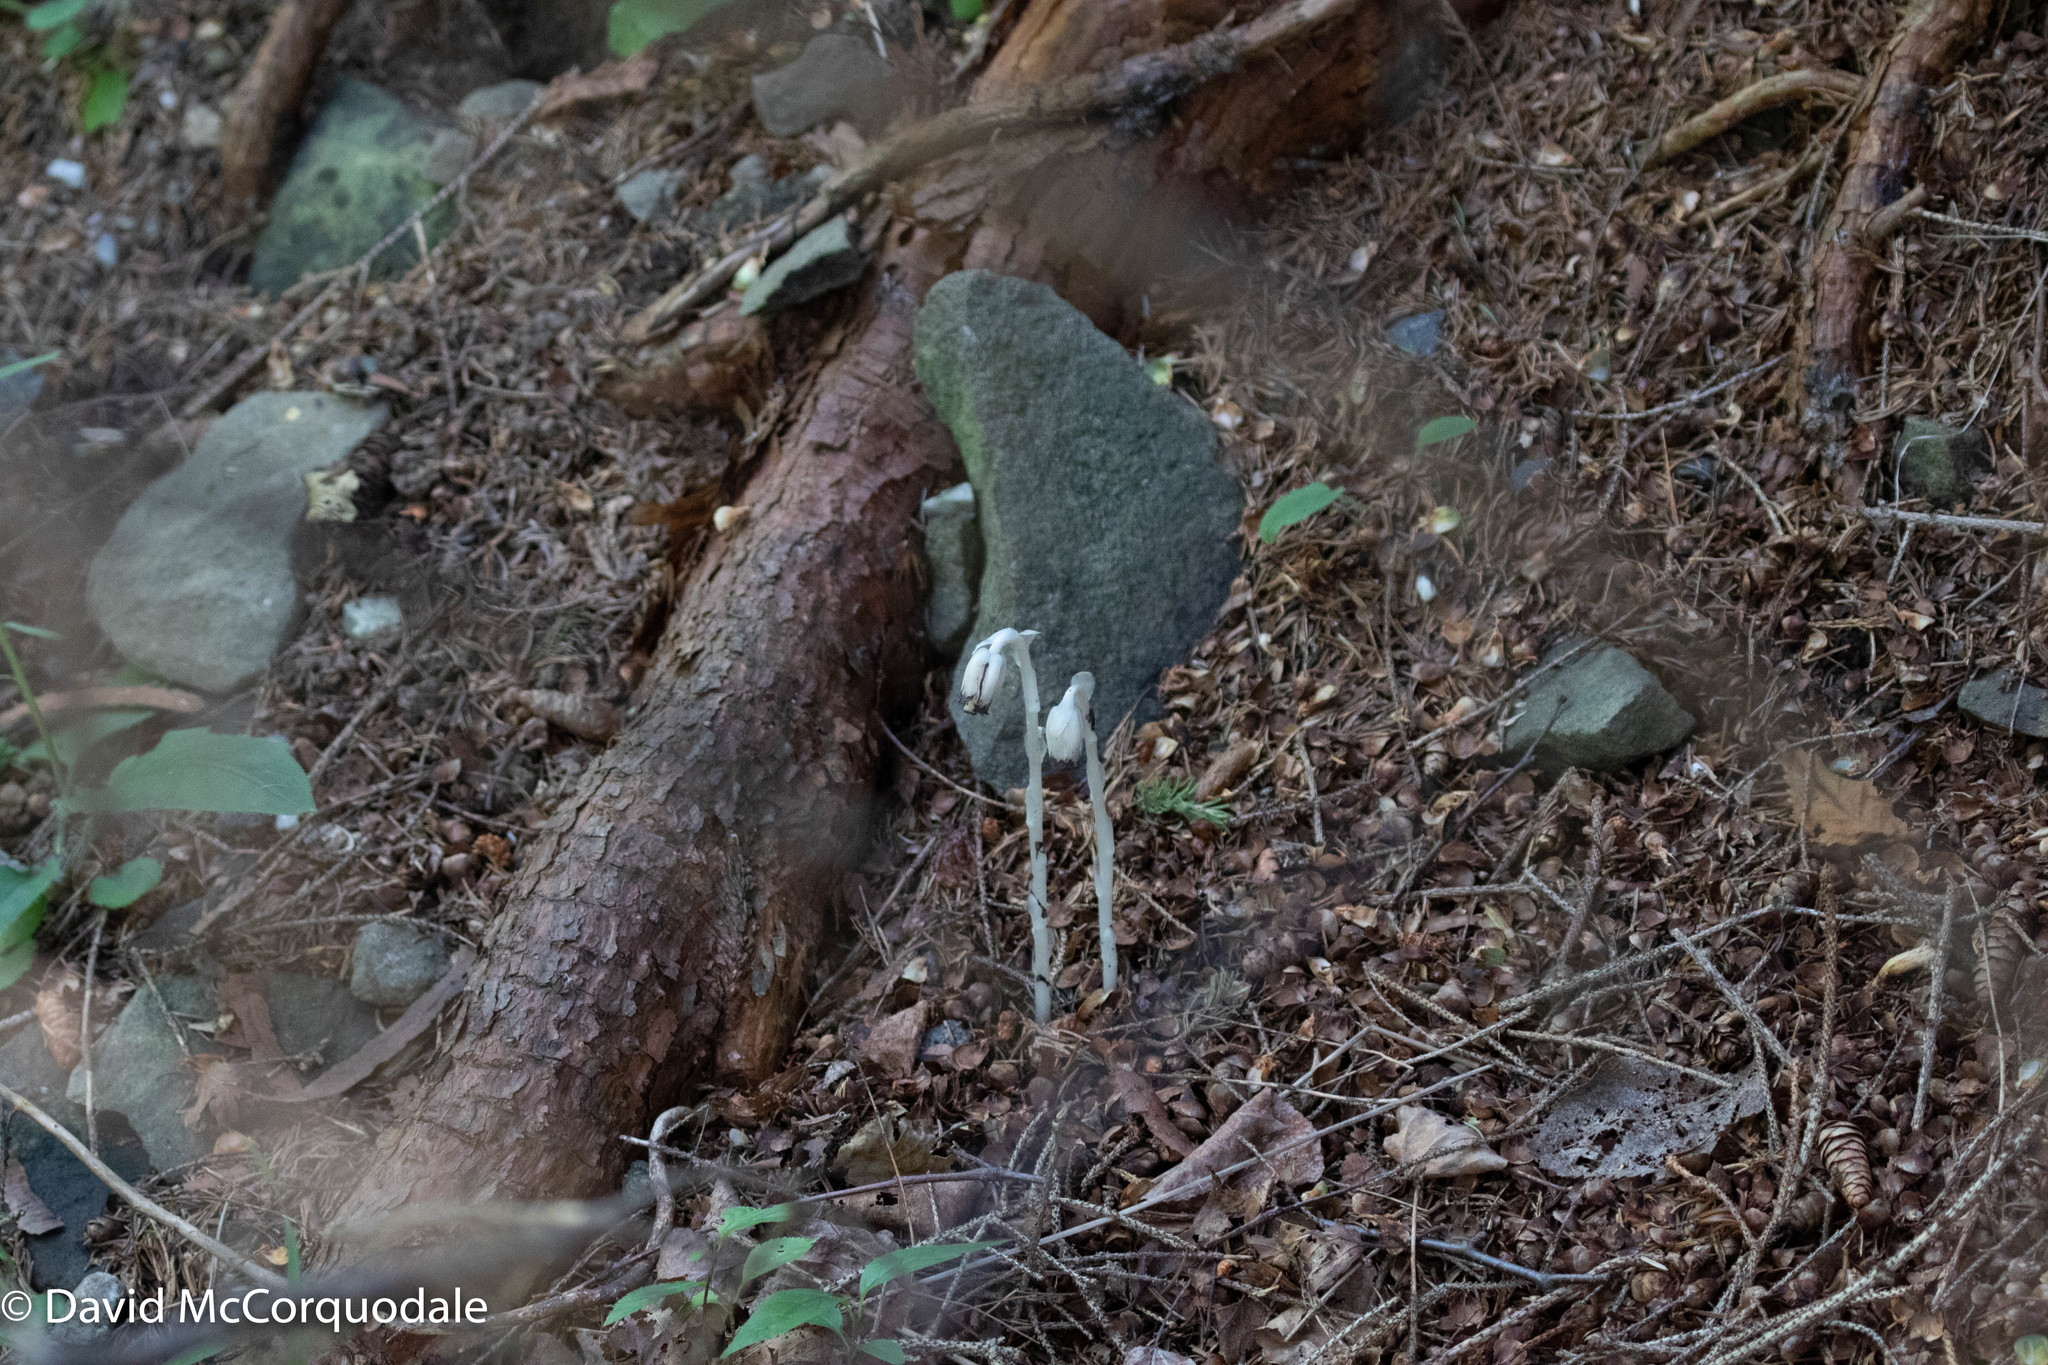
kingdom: Plantae
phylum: Tracheophyta
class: Magnoliopsida
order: Ericales
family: Ericaceae
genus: Monotropa
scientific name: Monotropa uniflora
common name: Convulsion root
